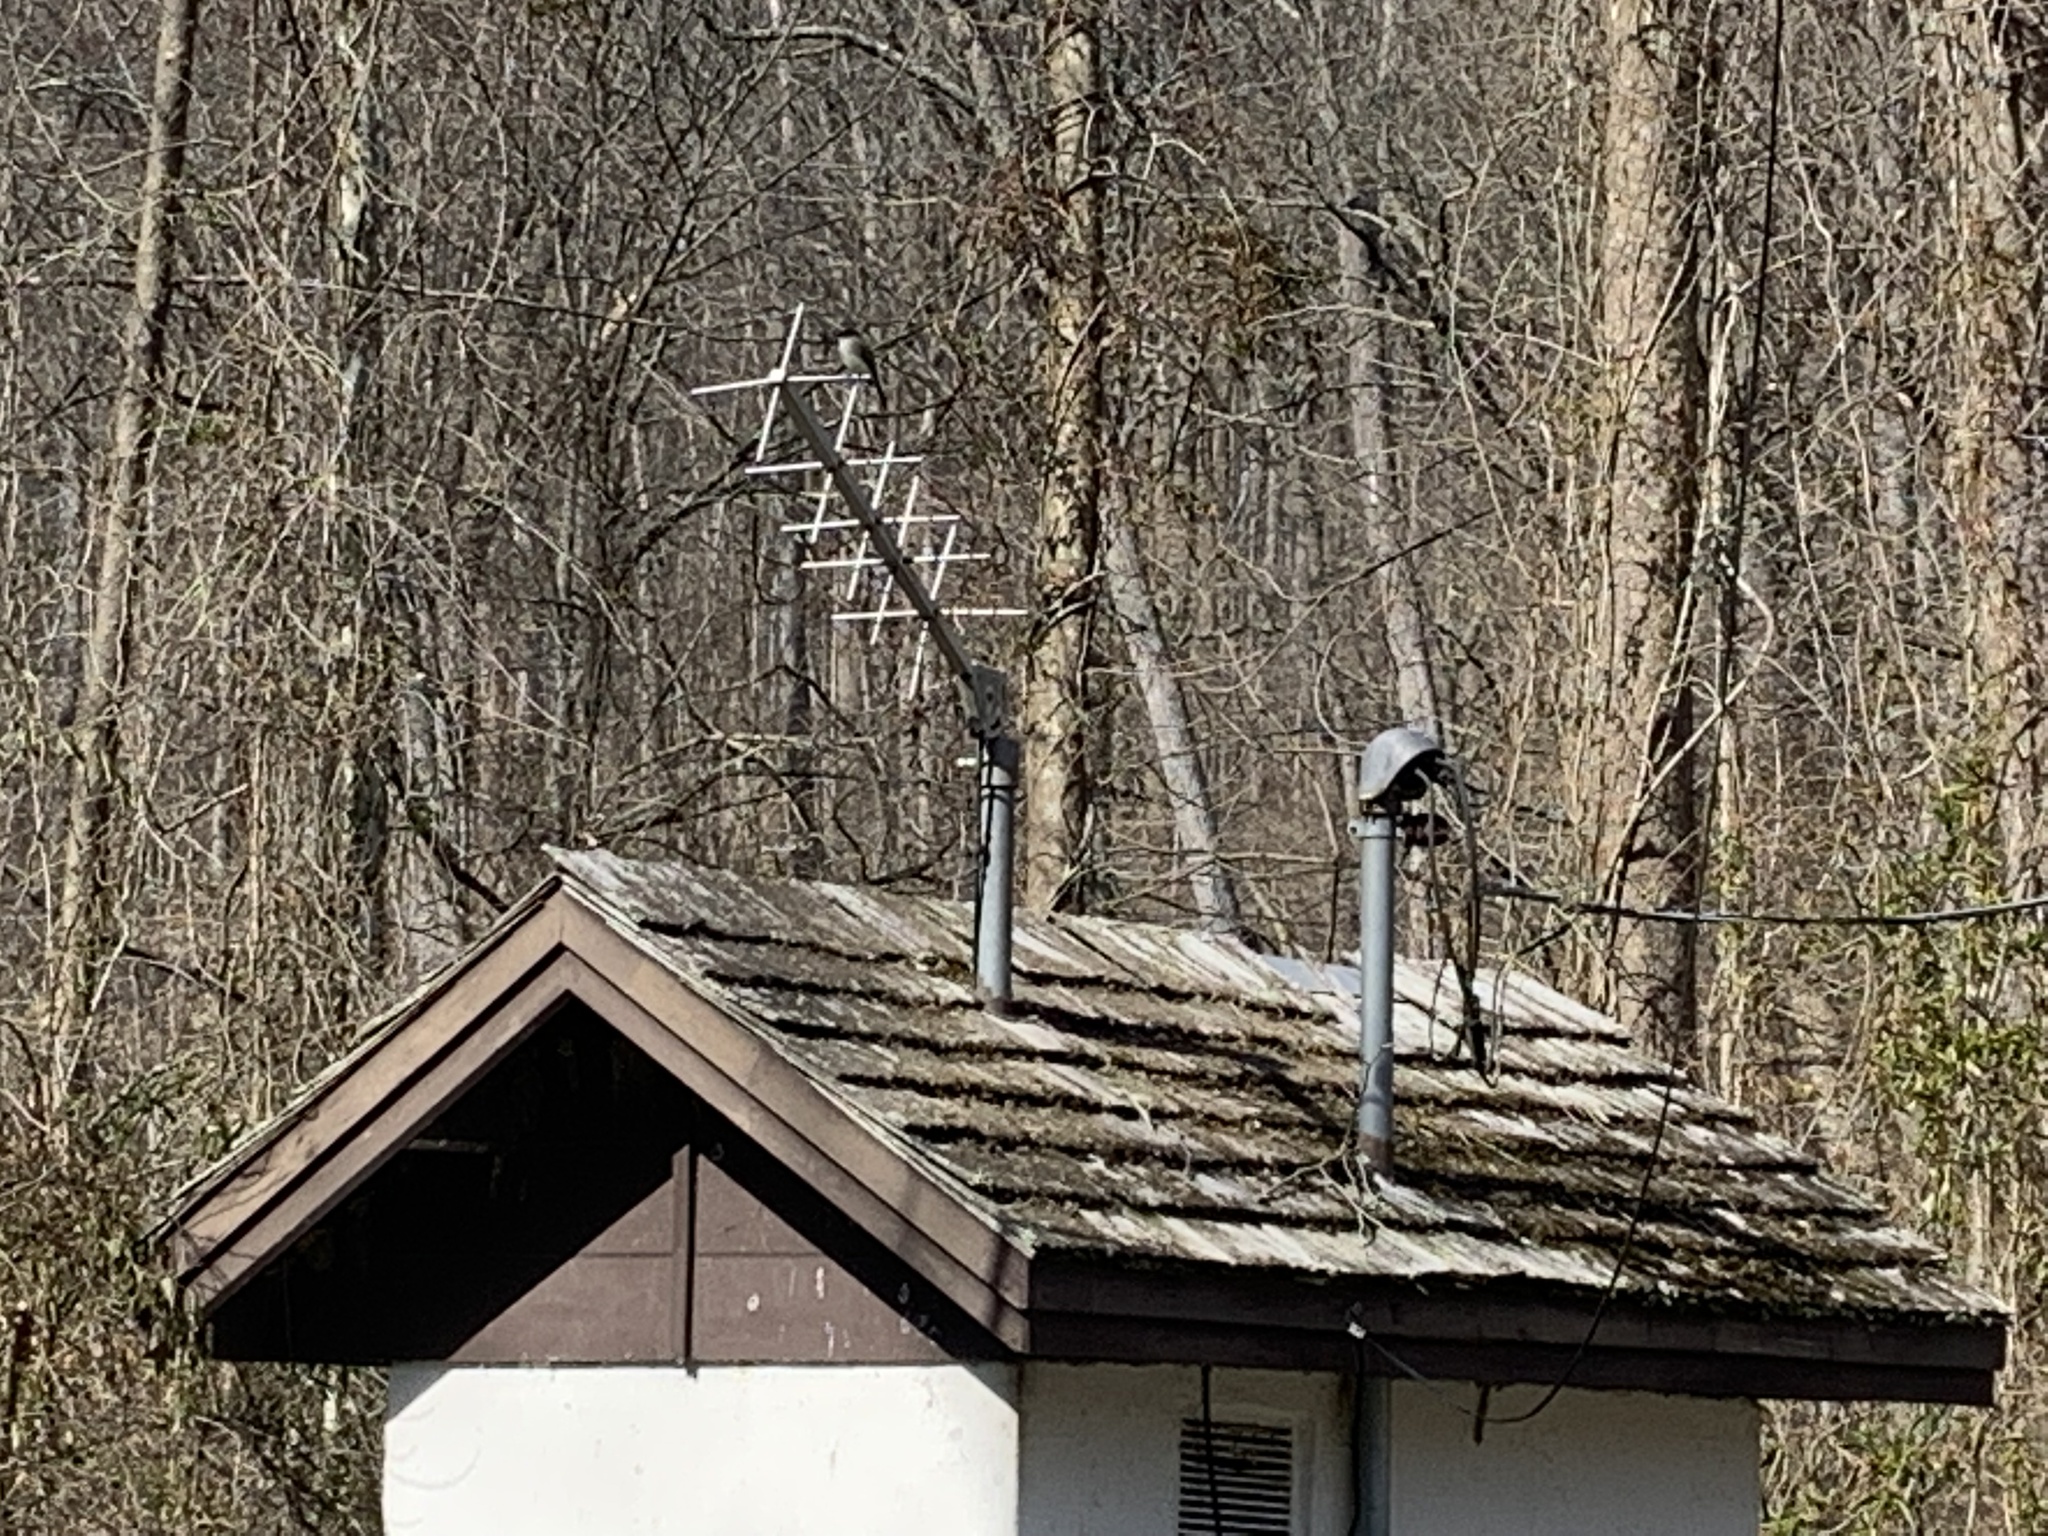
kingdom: Animalia
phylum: Chordata
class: Aves
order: Passeriformes
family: Tyrannidae
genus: Sayornis
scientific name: Sayornis phoebe
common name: Eastern phoebe
